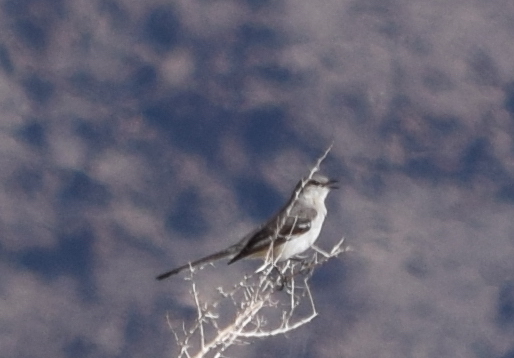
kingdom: Animalia
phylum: Chordata
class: Aves
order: Passeriformes
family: Mimidae
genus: Mimus
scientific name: Mimus polyglottos
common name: Northern mockingbird
